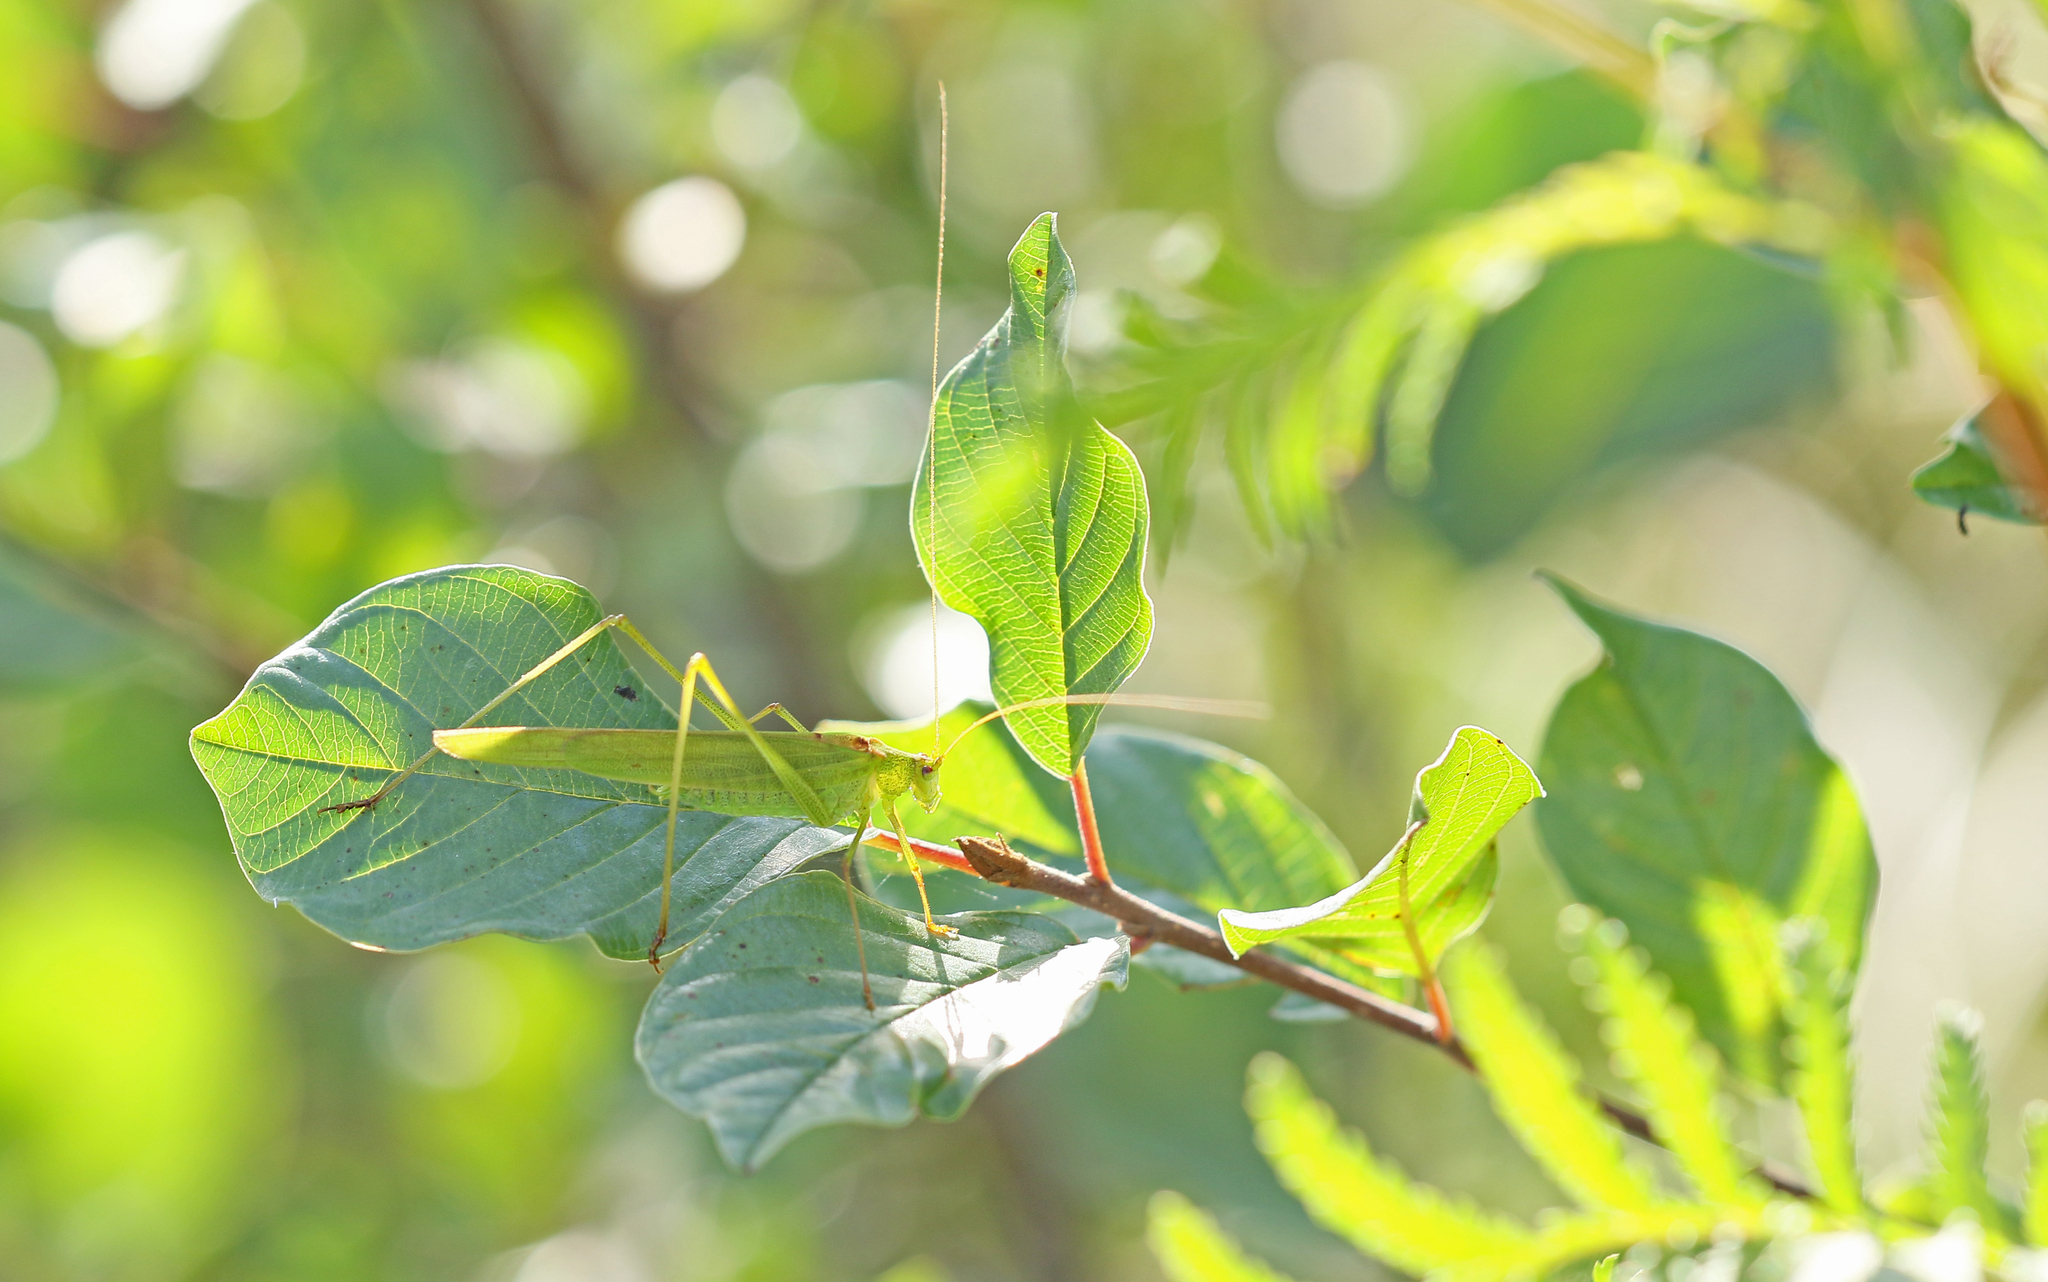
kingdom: Animalia
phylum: Arthropoda
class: Insecta
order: Orthoptera
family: Tettigoniidae
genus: Phaneroptera
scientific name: Phaneroptera falcata
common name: Sickle-bearing bush-cricket
